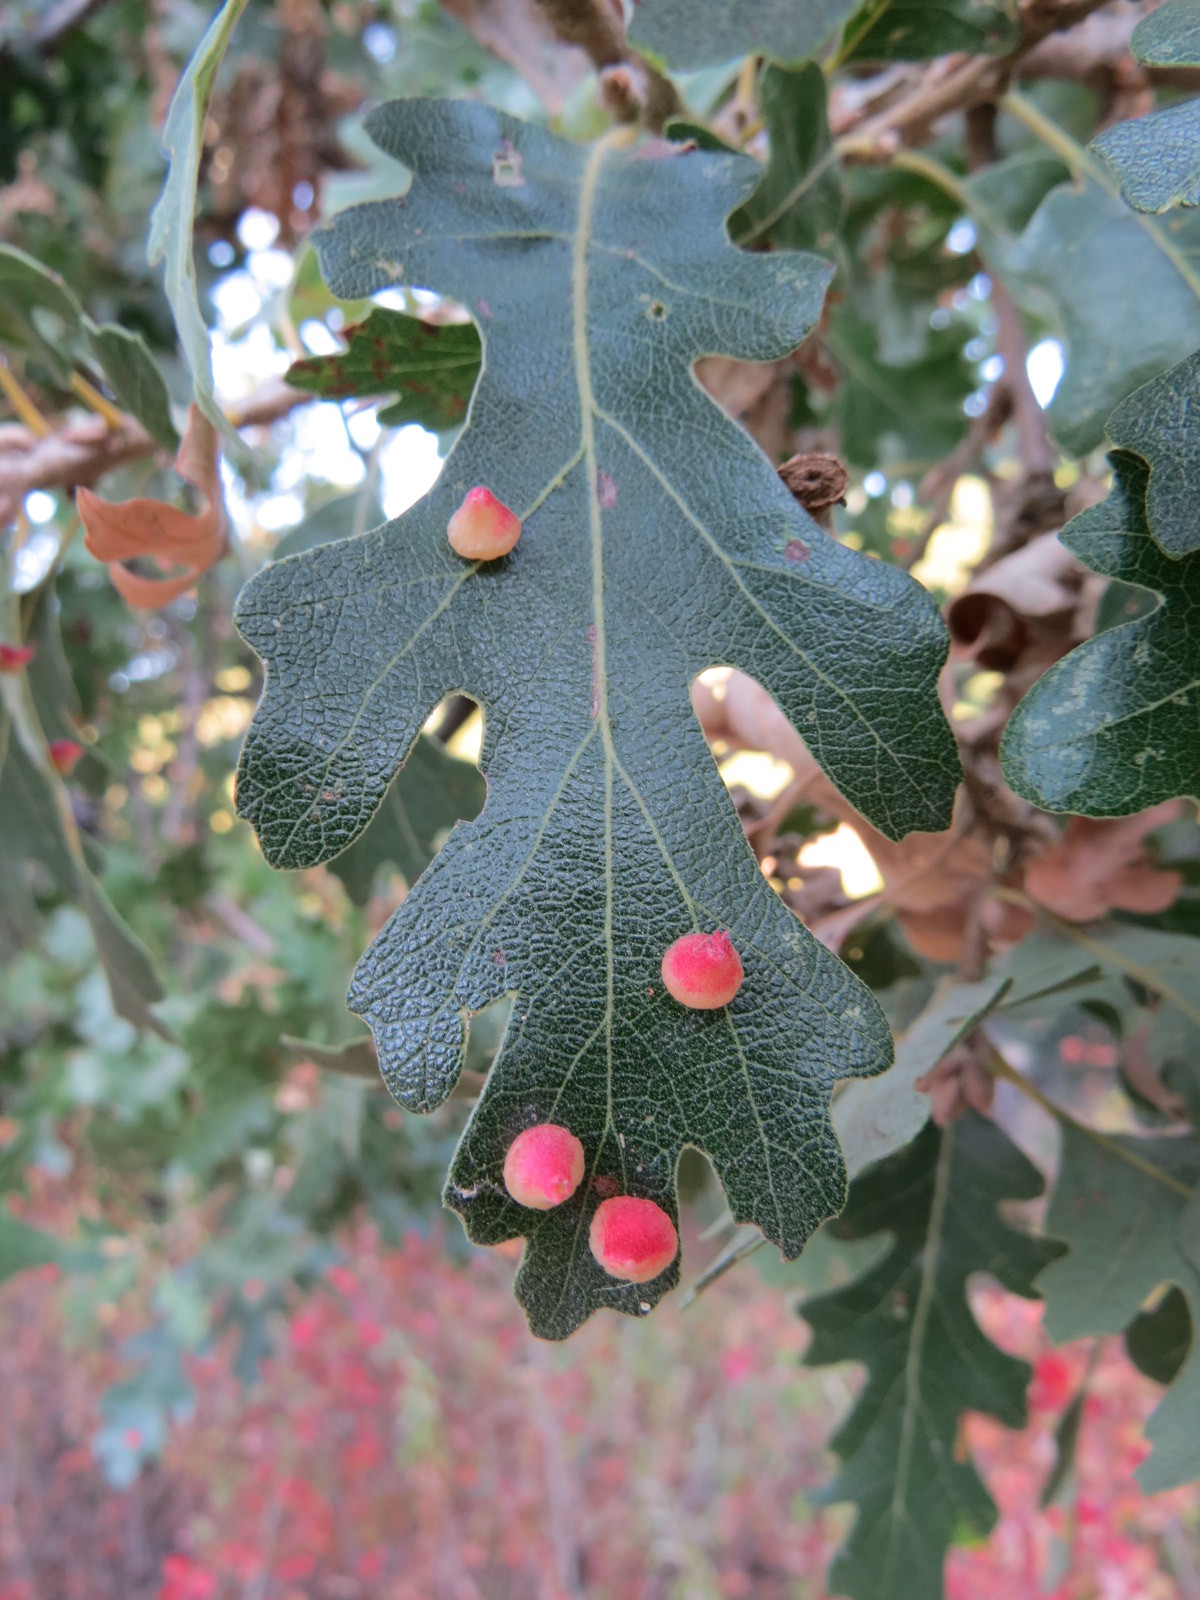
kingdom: Animalia
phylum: Arthropoda
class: Insecta
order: Hymenoptera
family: Cynipidae
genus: Andricus
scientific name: Andricus
